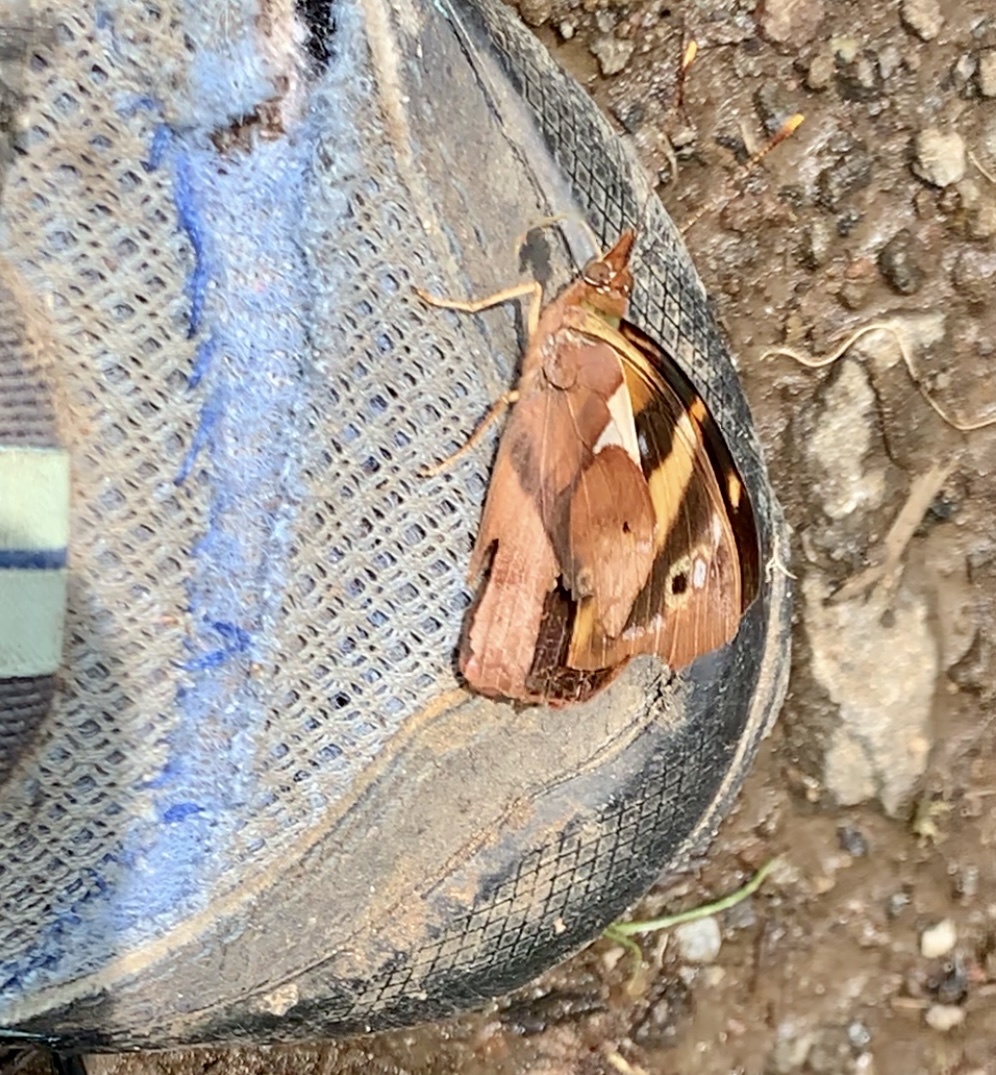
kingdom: Animalia
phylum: Arthropoda
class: Insecta
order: Lepidoptera
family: Nymphalidae
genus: Epiphile
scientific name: Epiphile epimenes
